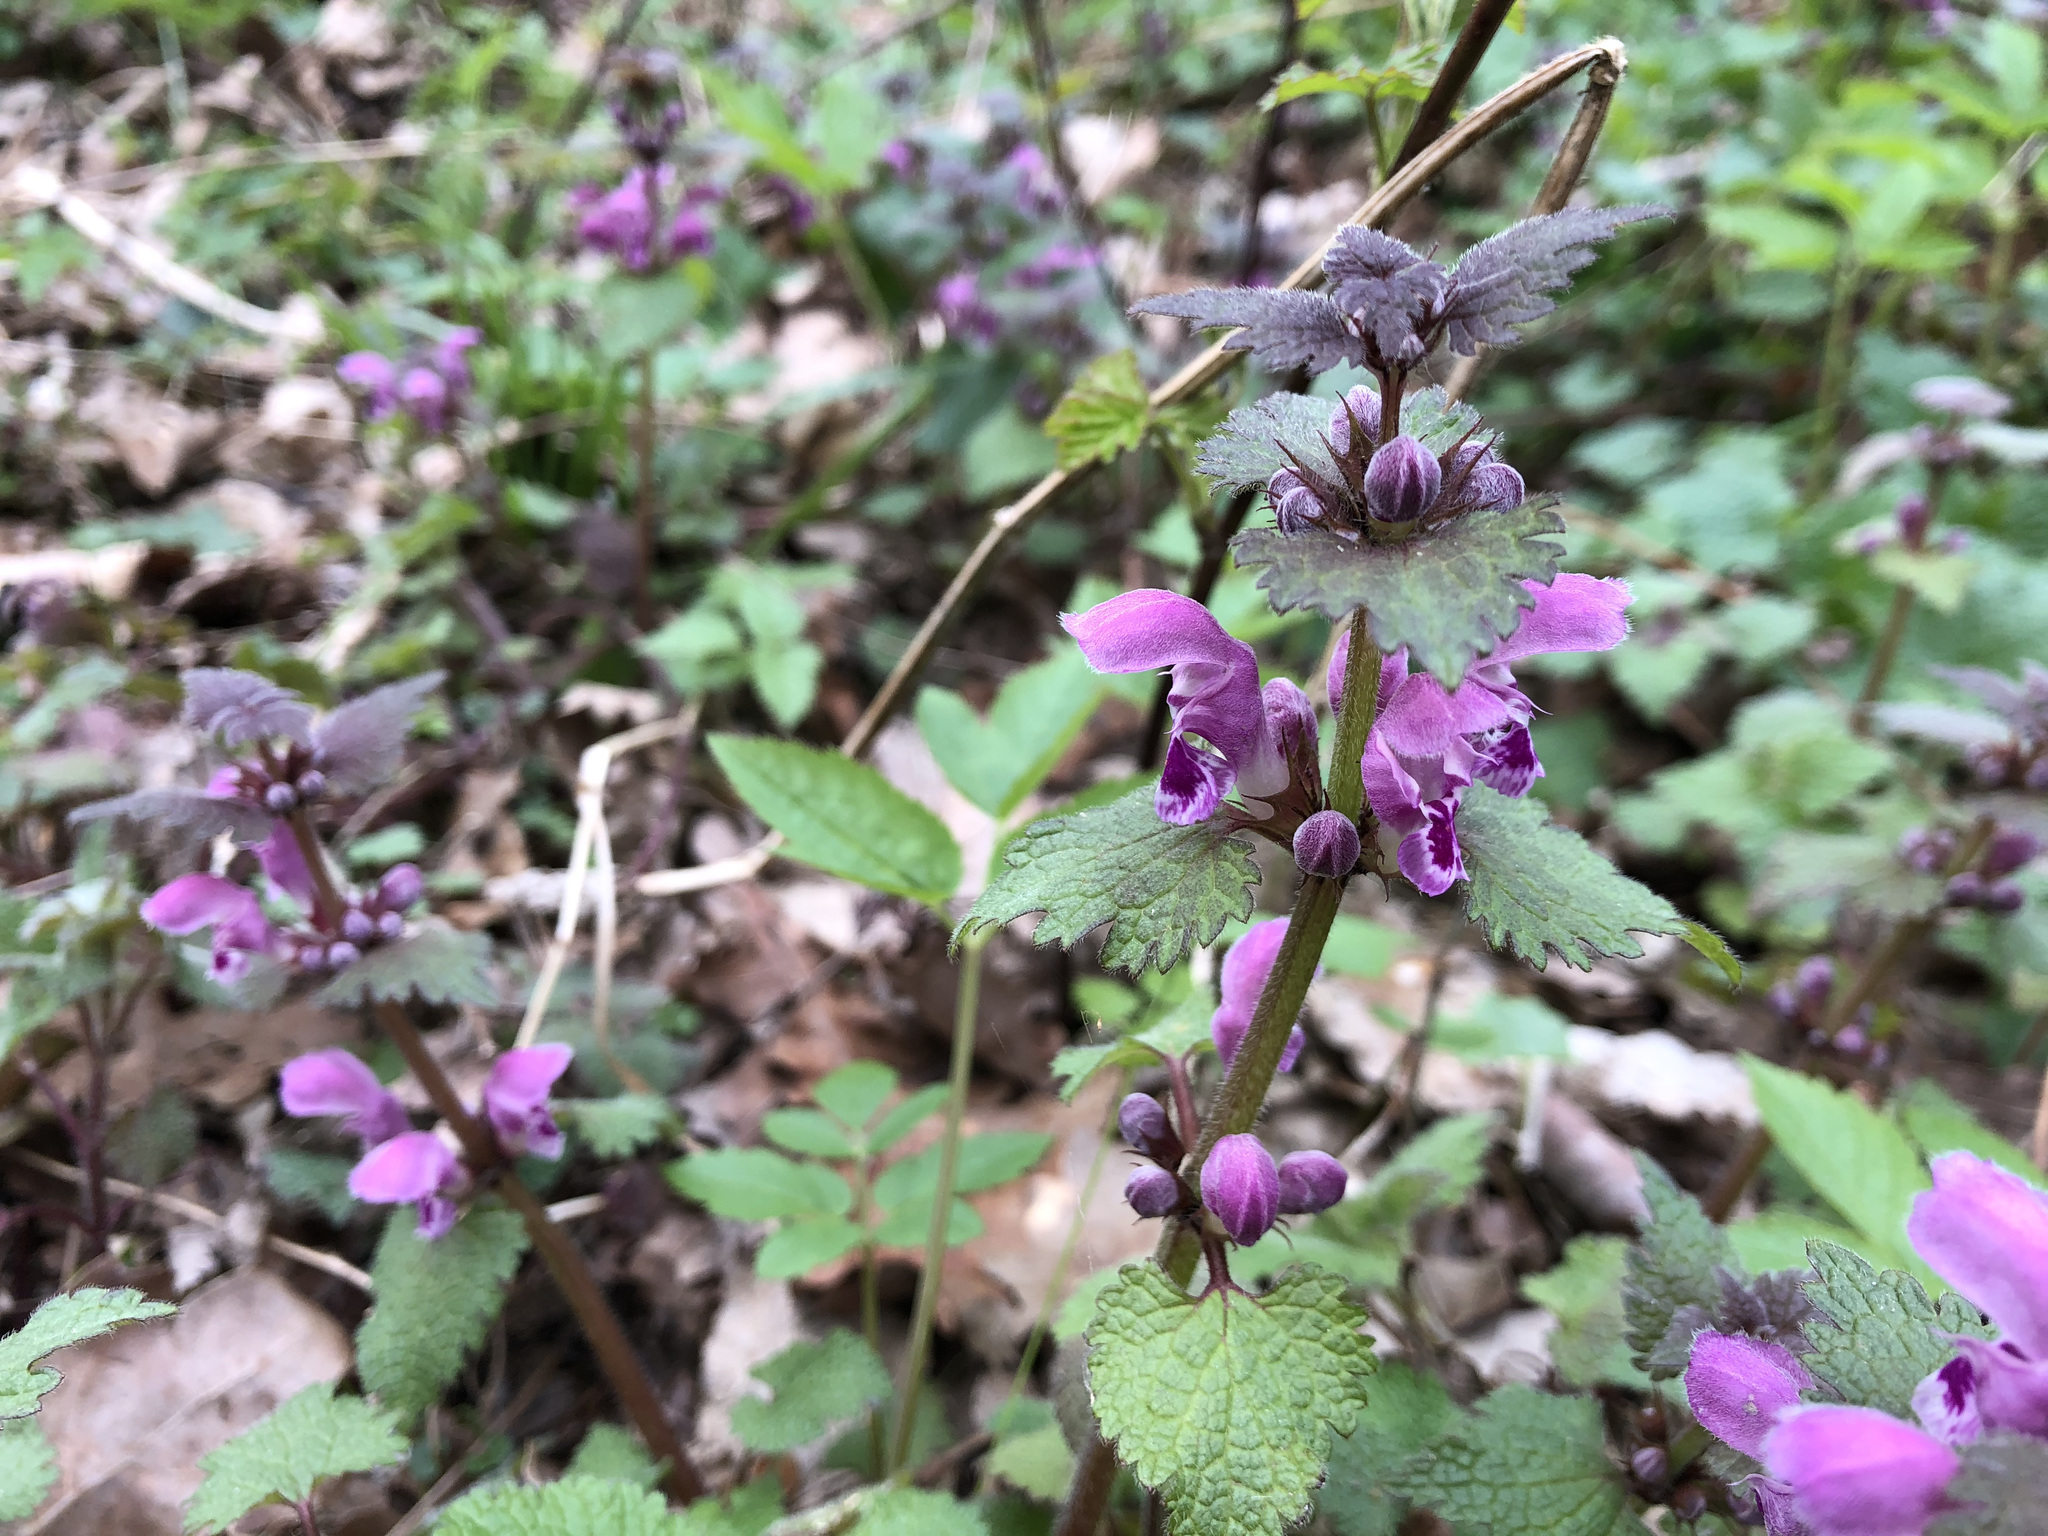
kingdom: Plantae
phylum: Tracheophyta
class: Magnoliopsida
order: Lamiales
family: Lamiaceae
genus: Lamium
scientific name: Lamium maculatum
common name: Spotted dead-nettle
